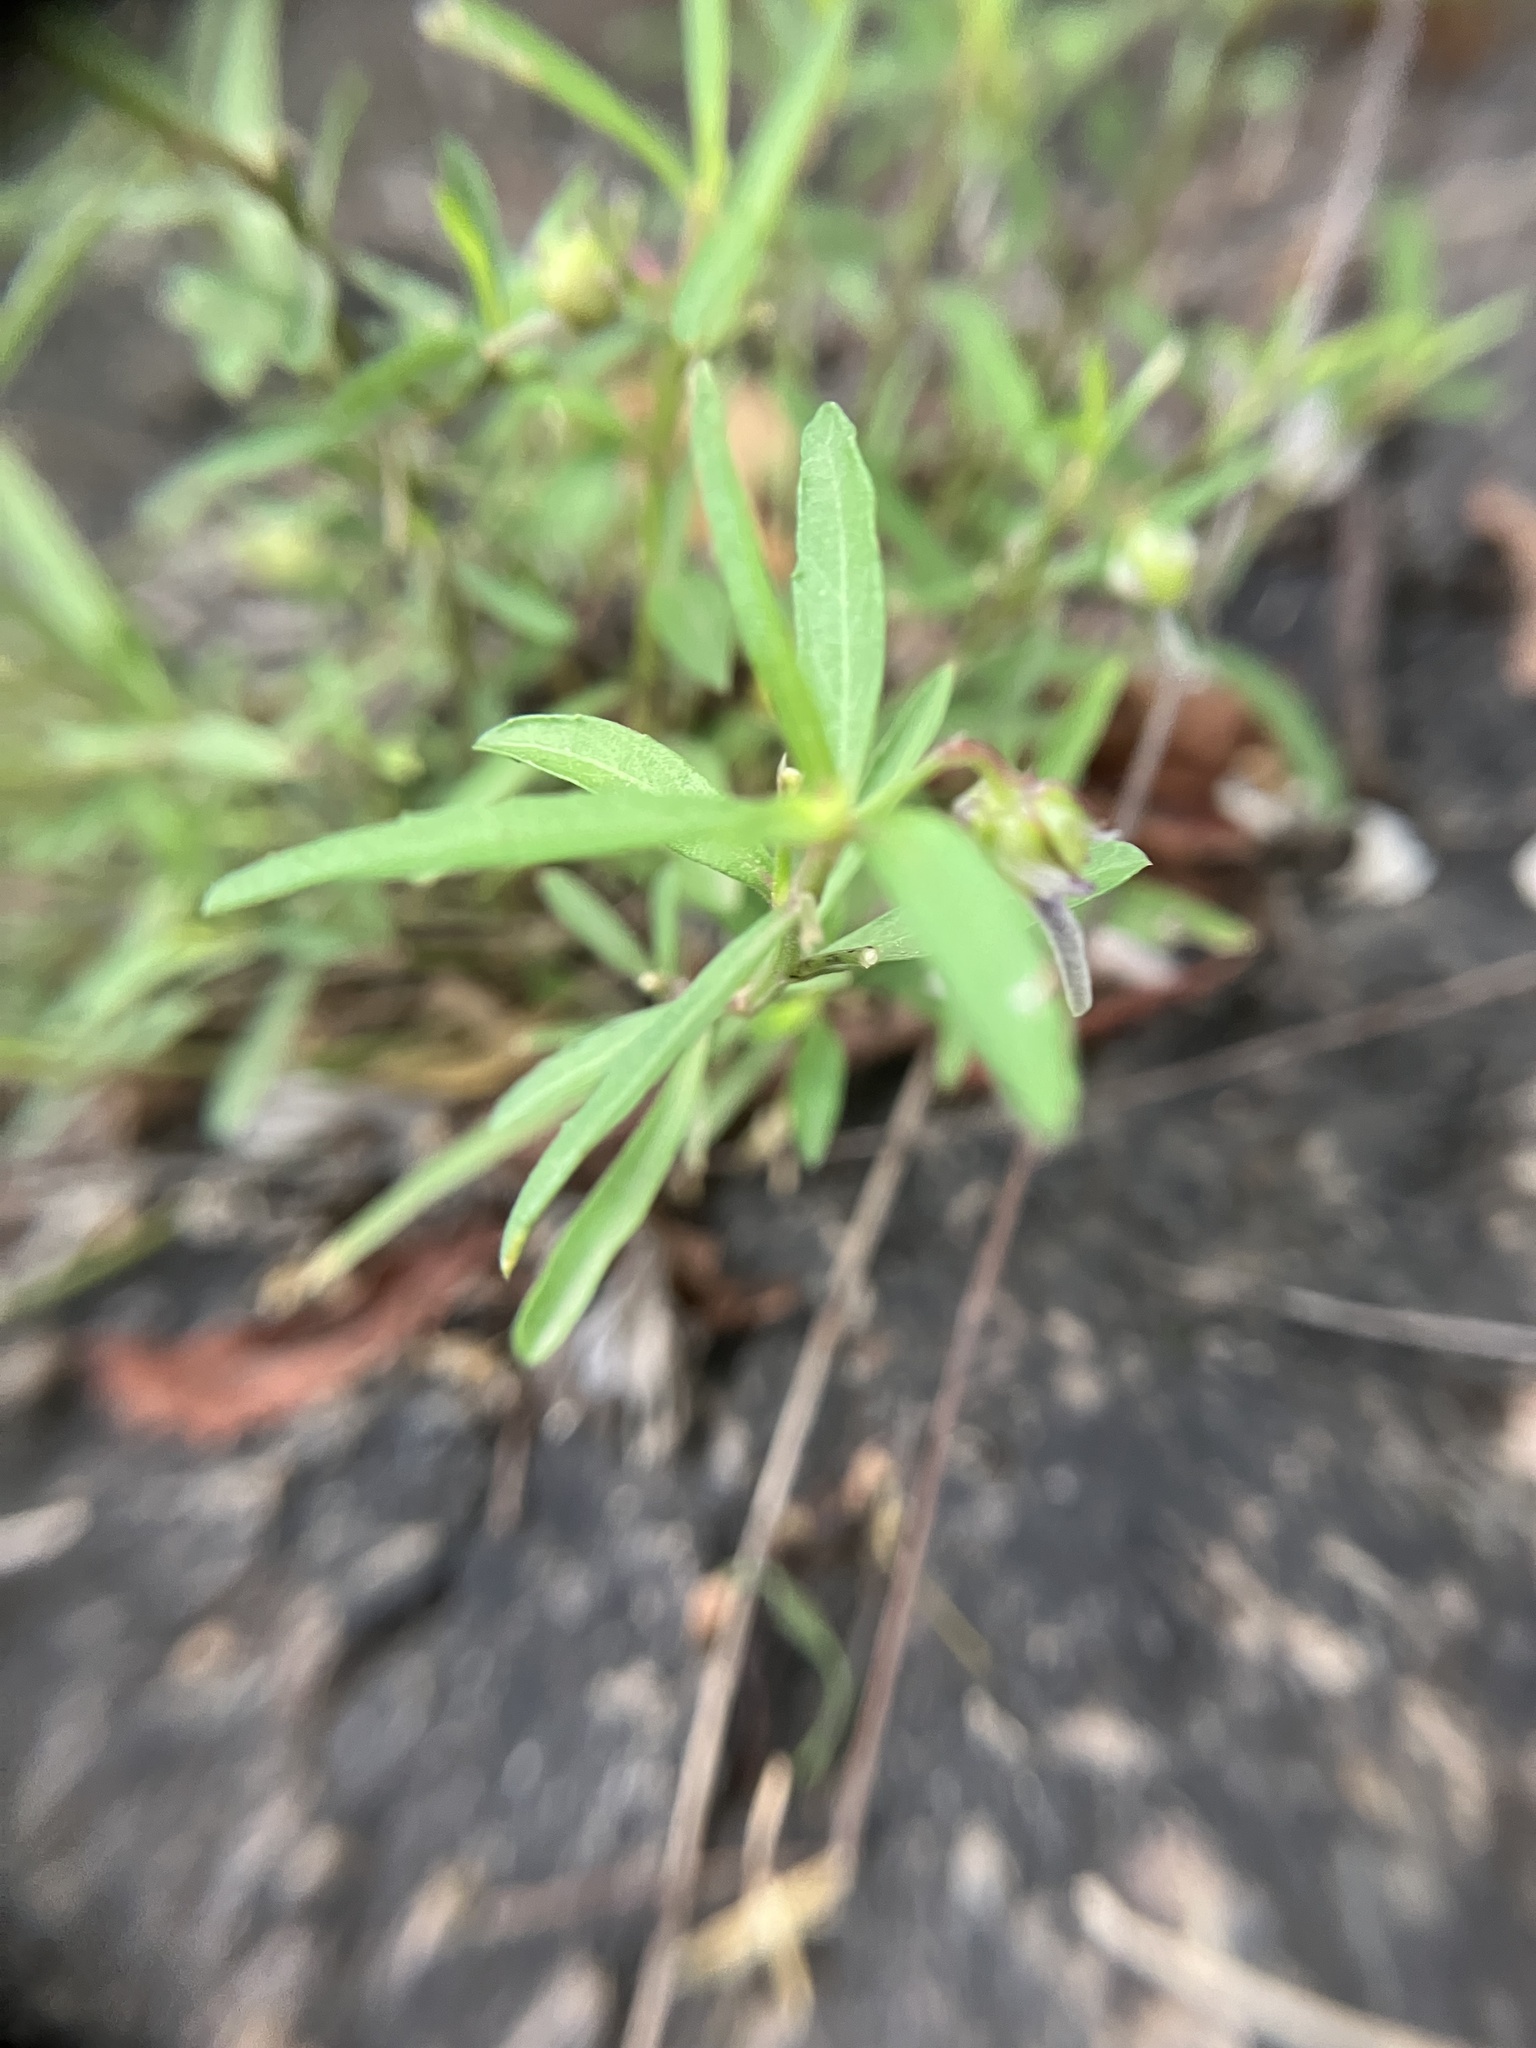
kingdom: Plantae
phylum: Tracheophyta
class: Magnoliopsida
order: Malpighiales
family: Violaceae
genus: Pigea
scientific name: Pigea enneasperma
